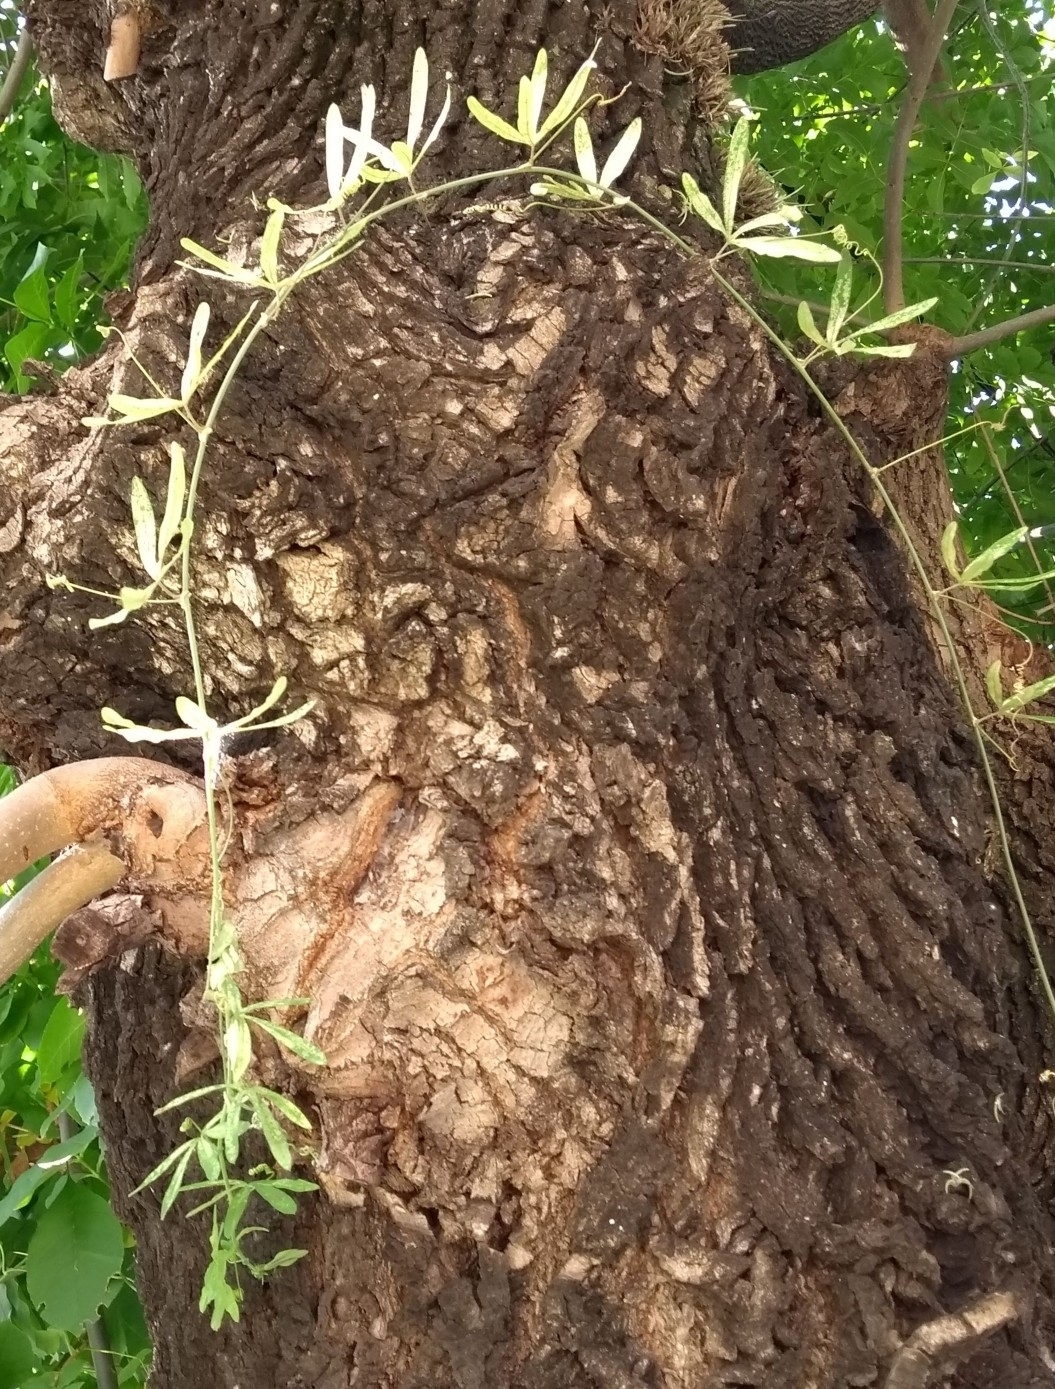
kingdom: Plantae
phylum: Tracheophyta
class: Magnoliopsida
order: Malpighiales
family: Passifloraceae
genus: Passiflora
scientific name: Passiflora caerulea
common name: Blue passionflower
